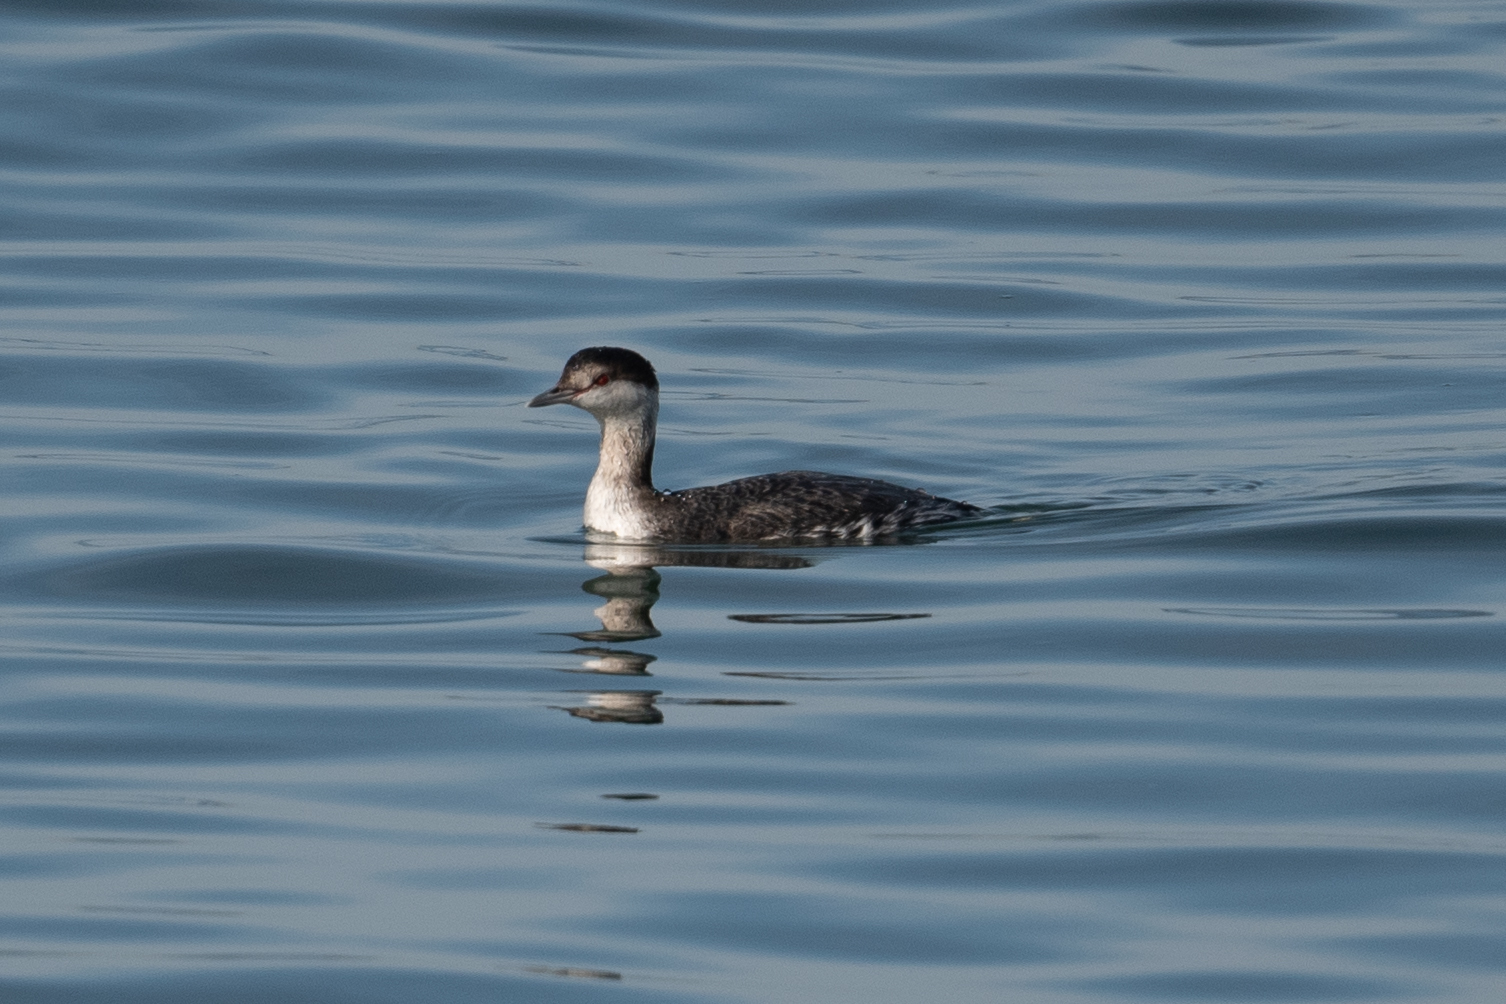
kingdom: Animalia
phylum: Chordata
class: Aves
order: Podicipediformes
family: Podicipedidae
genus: Podiceps
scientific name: Podiceps auritus
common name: Horned grebe
